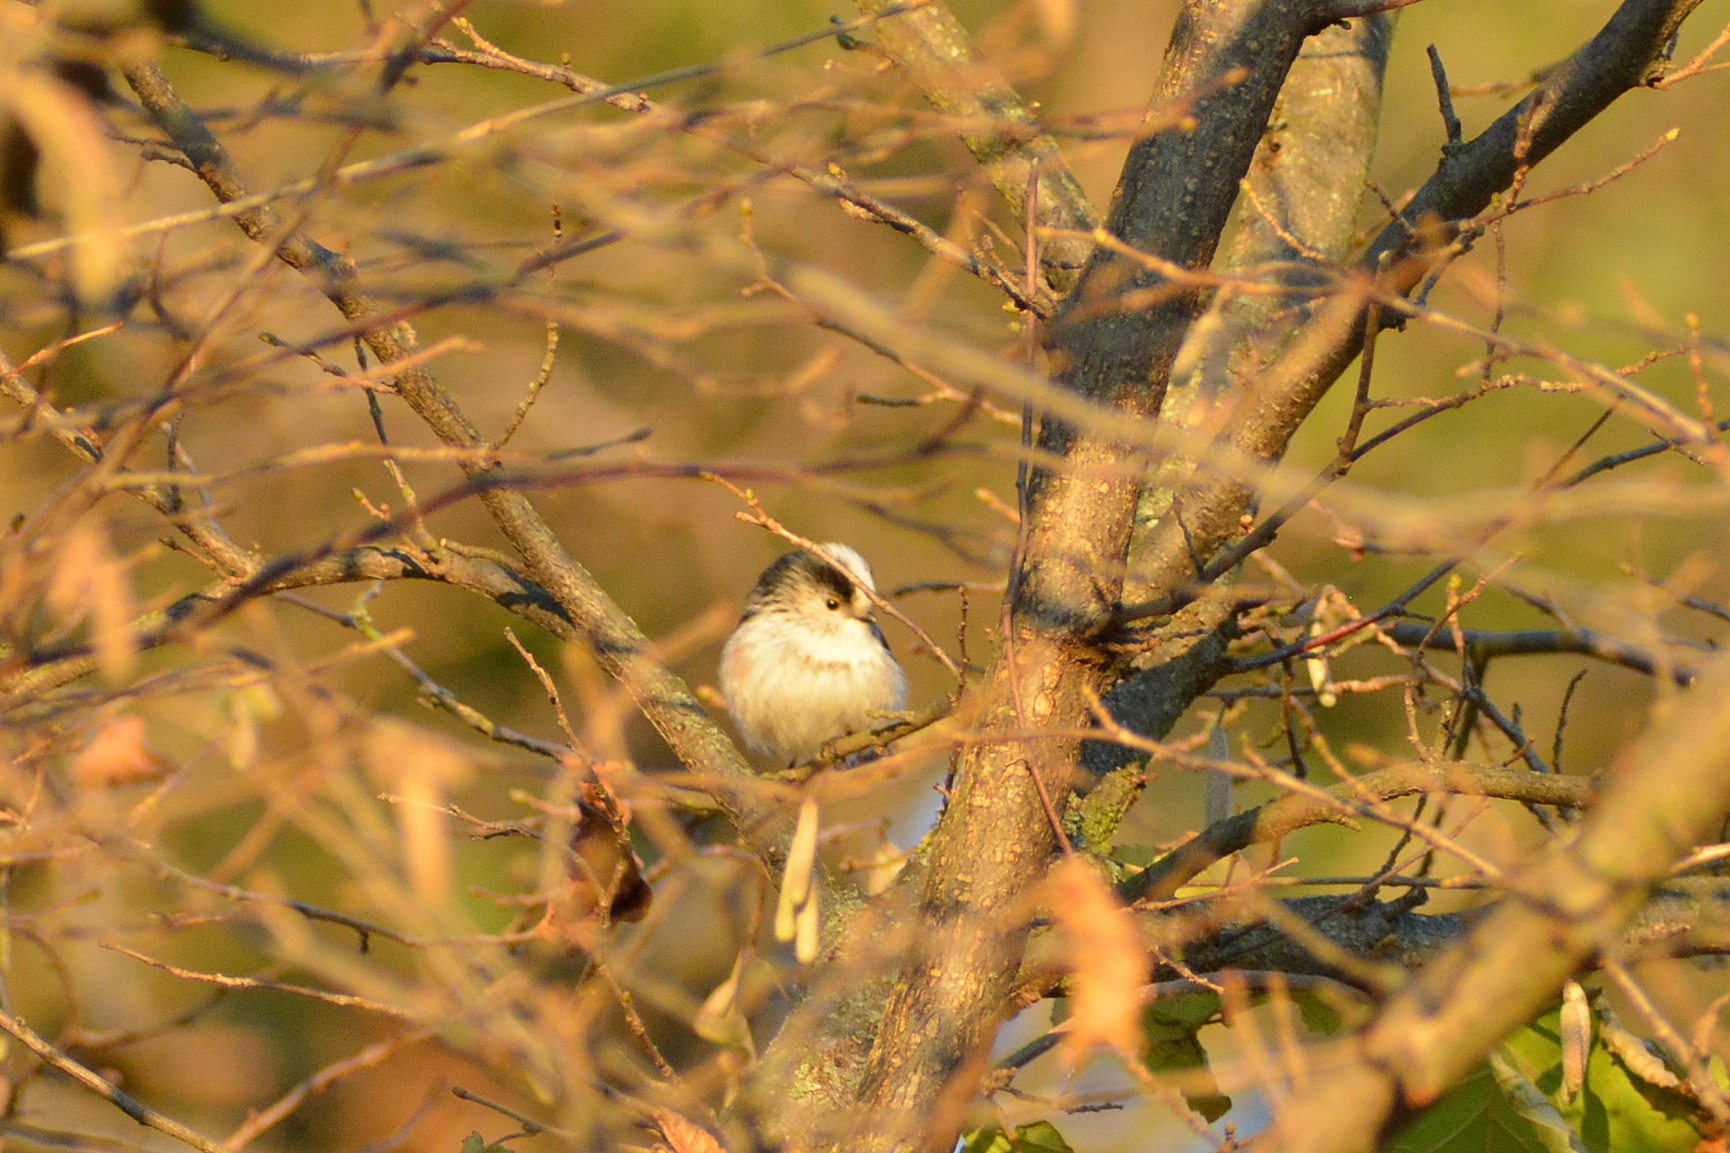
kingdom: Animalia
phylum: Chordata
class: Aves
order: Passeriformes
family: Aegithalidae
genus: Aegithalos
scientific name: Aegithalos caudatus
